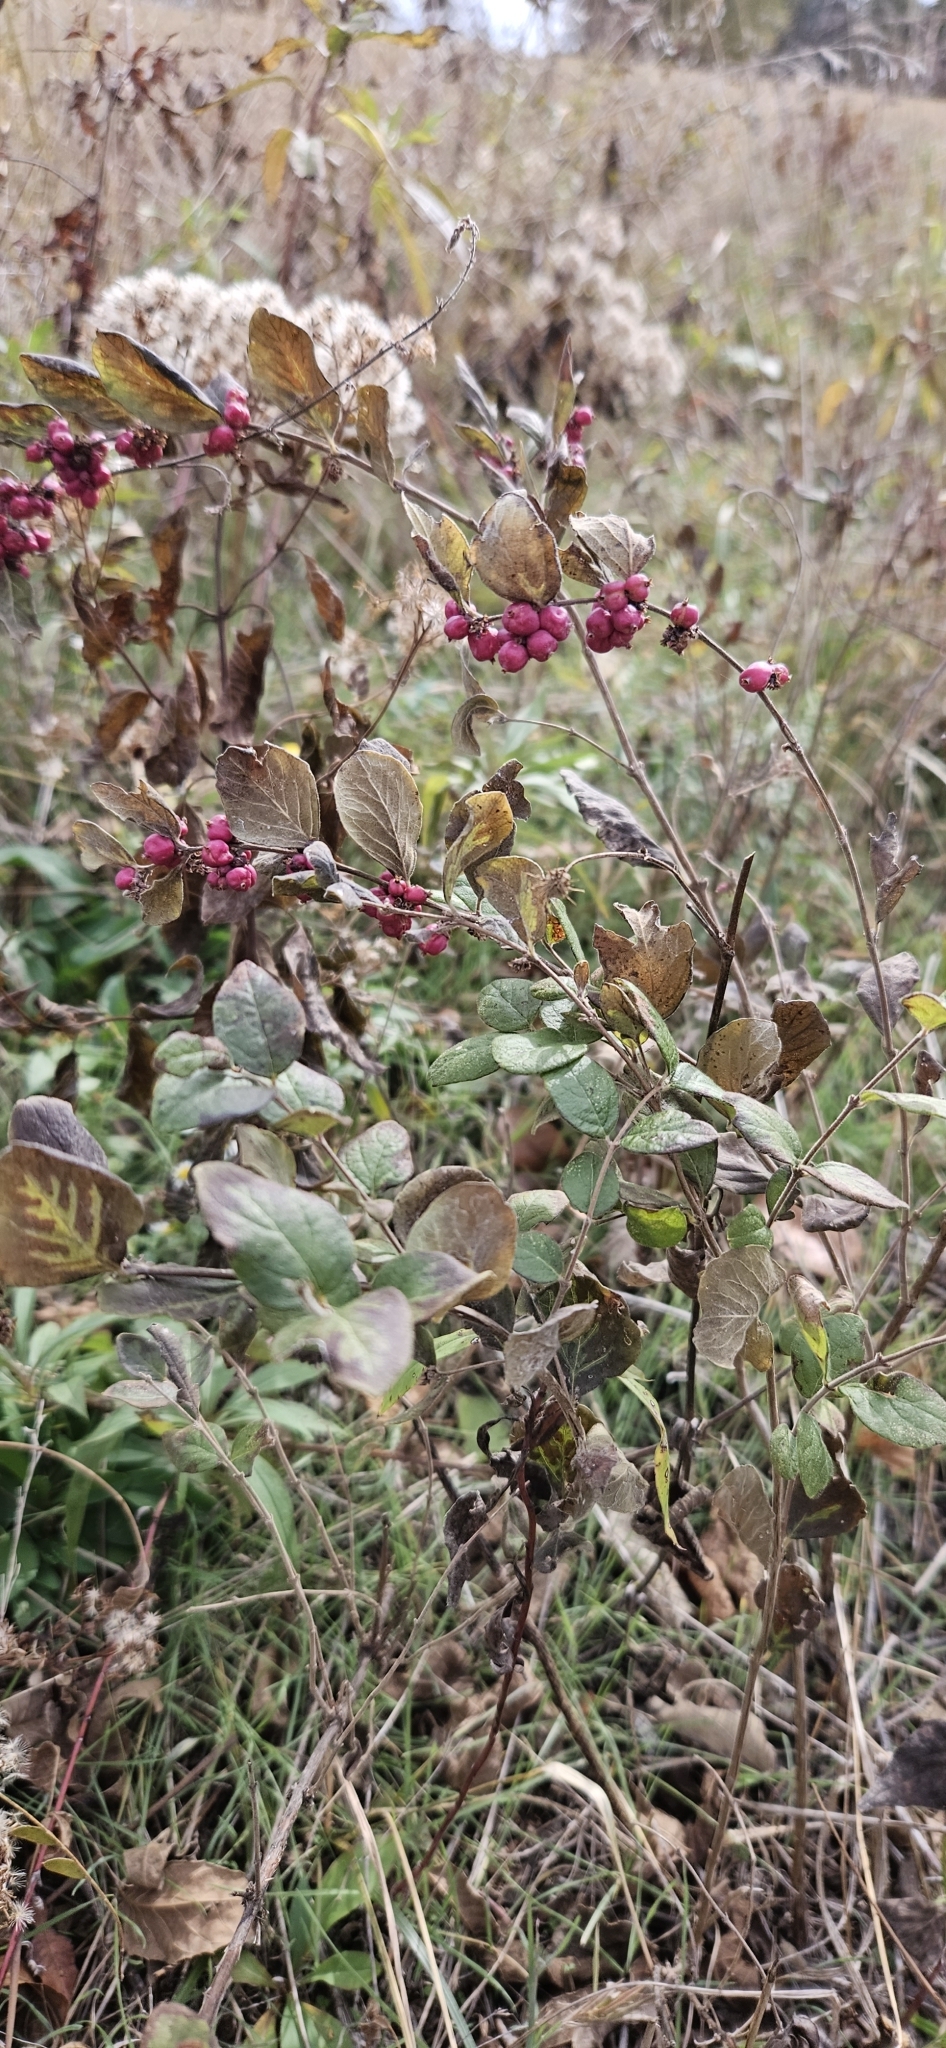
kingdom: Plantae
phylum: Tracheophyta
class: Magnoliopsida
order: Dipsacales
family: Caprifoliaceae
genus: Symphoricarpos
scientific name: Symphoricarpos orbiculatus
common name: Coralberry
